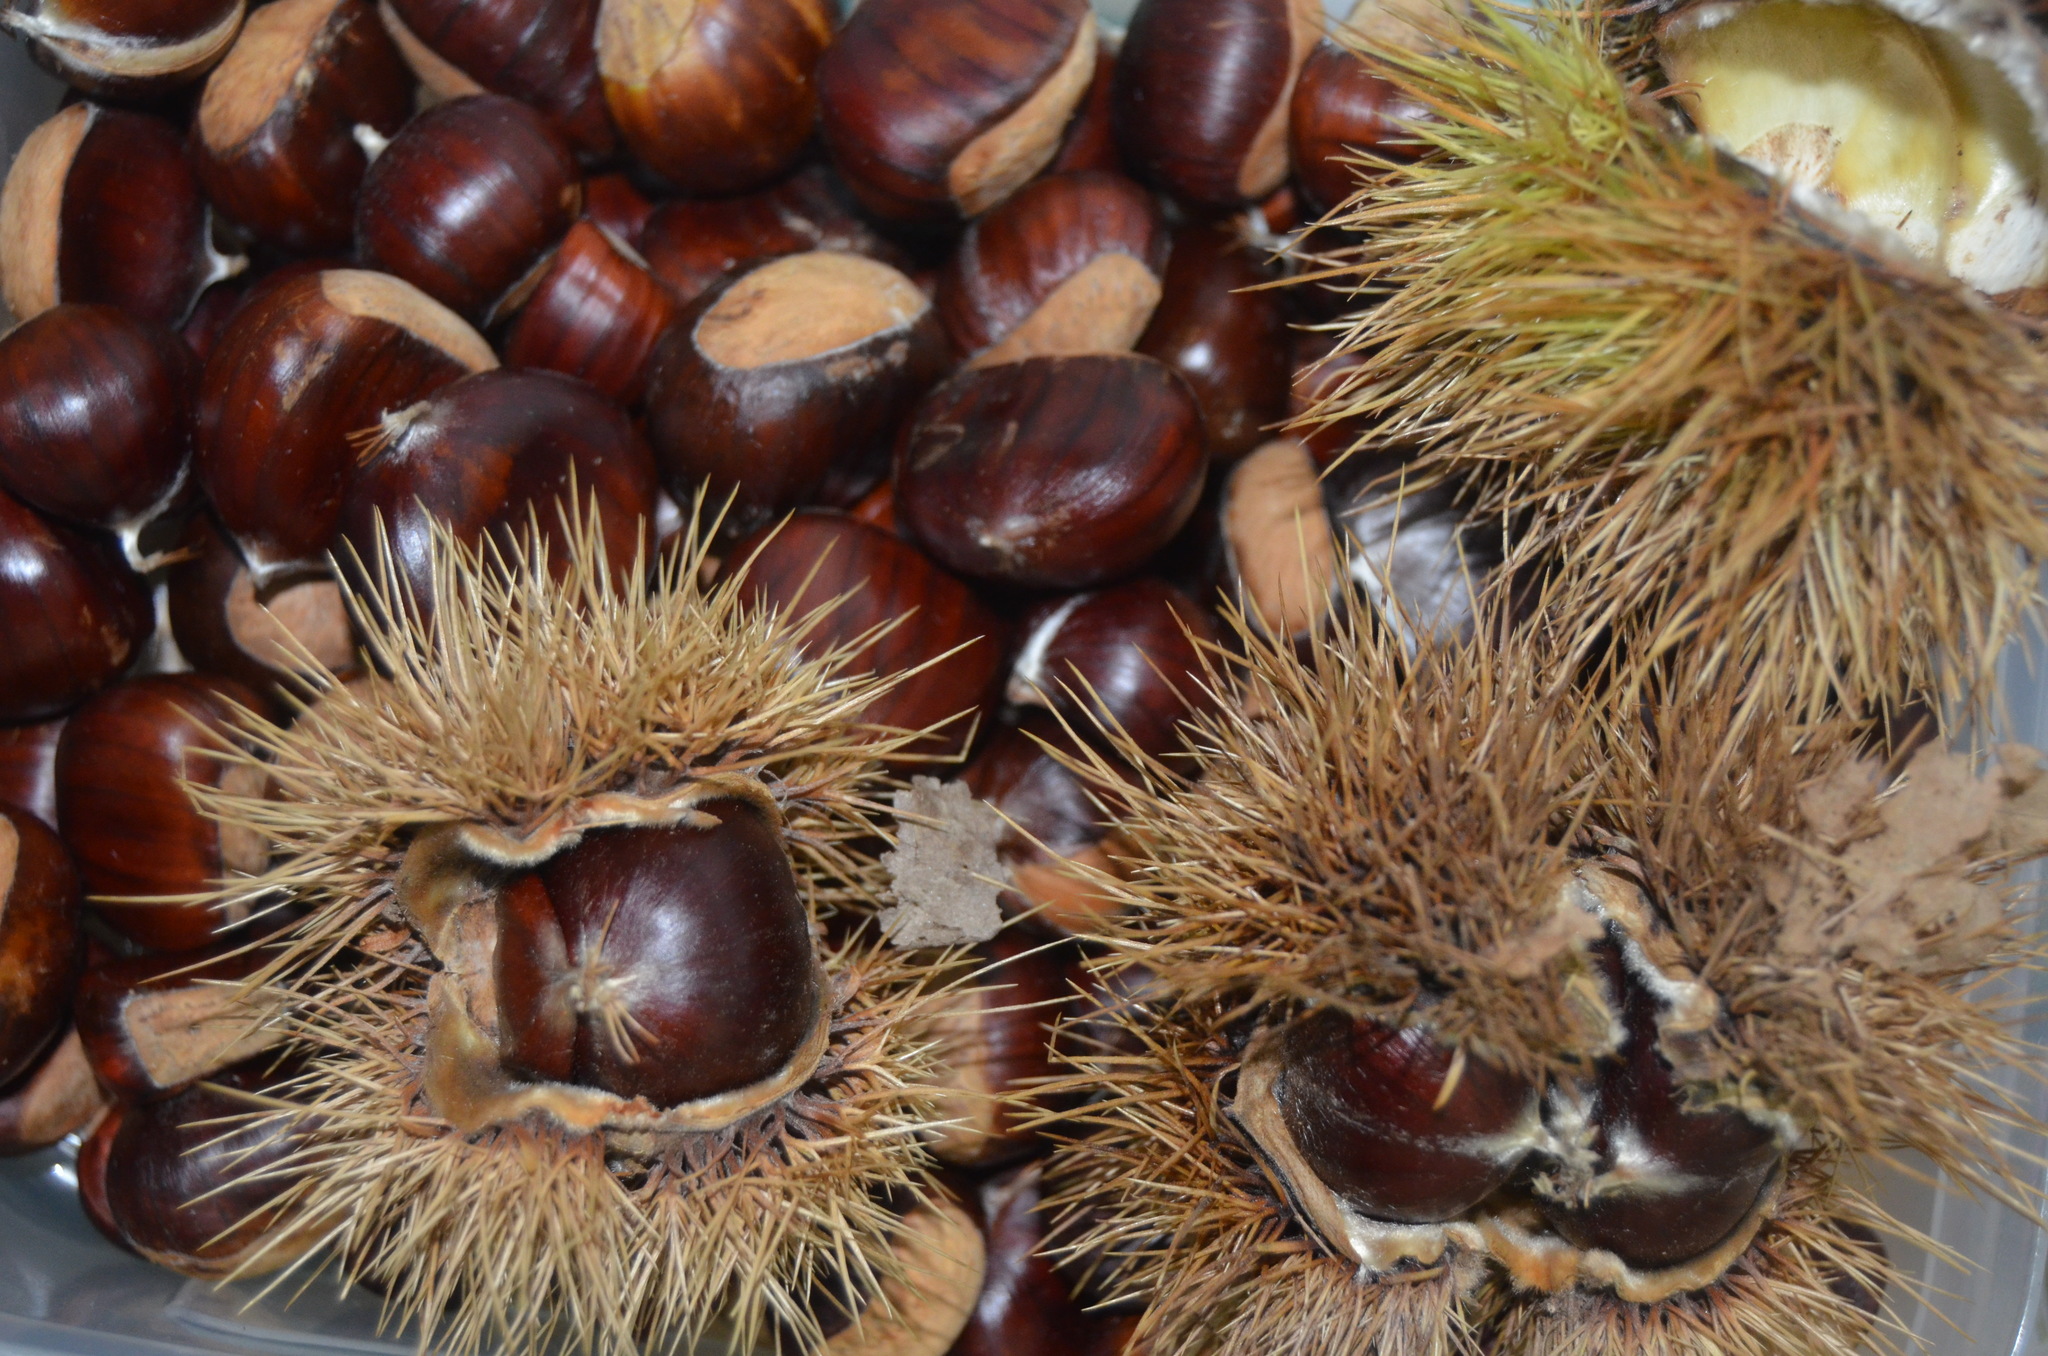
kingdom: Plantae
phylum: Tracheophyta
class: Magnoliopsida
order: Fagales
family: Fagaceae
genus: Castanea
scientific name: Castanea sativa
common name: Sweet chestnut
